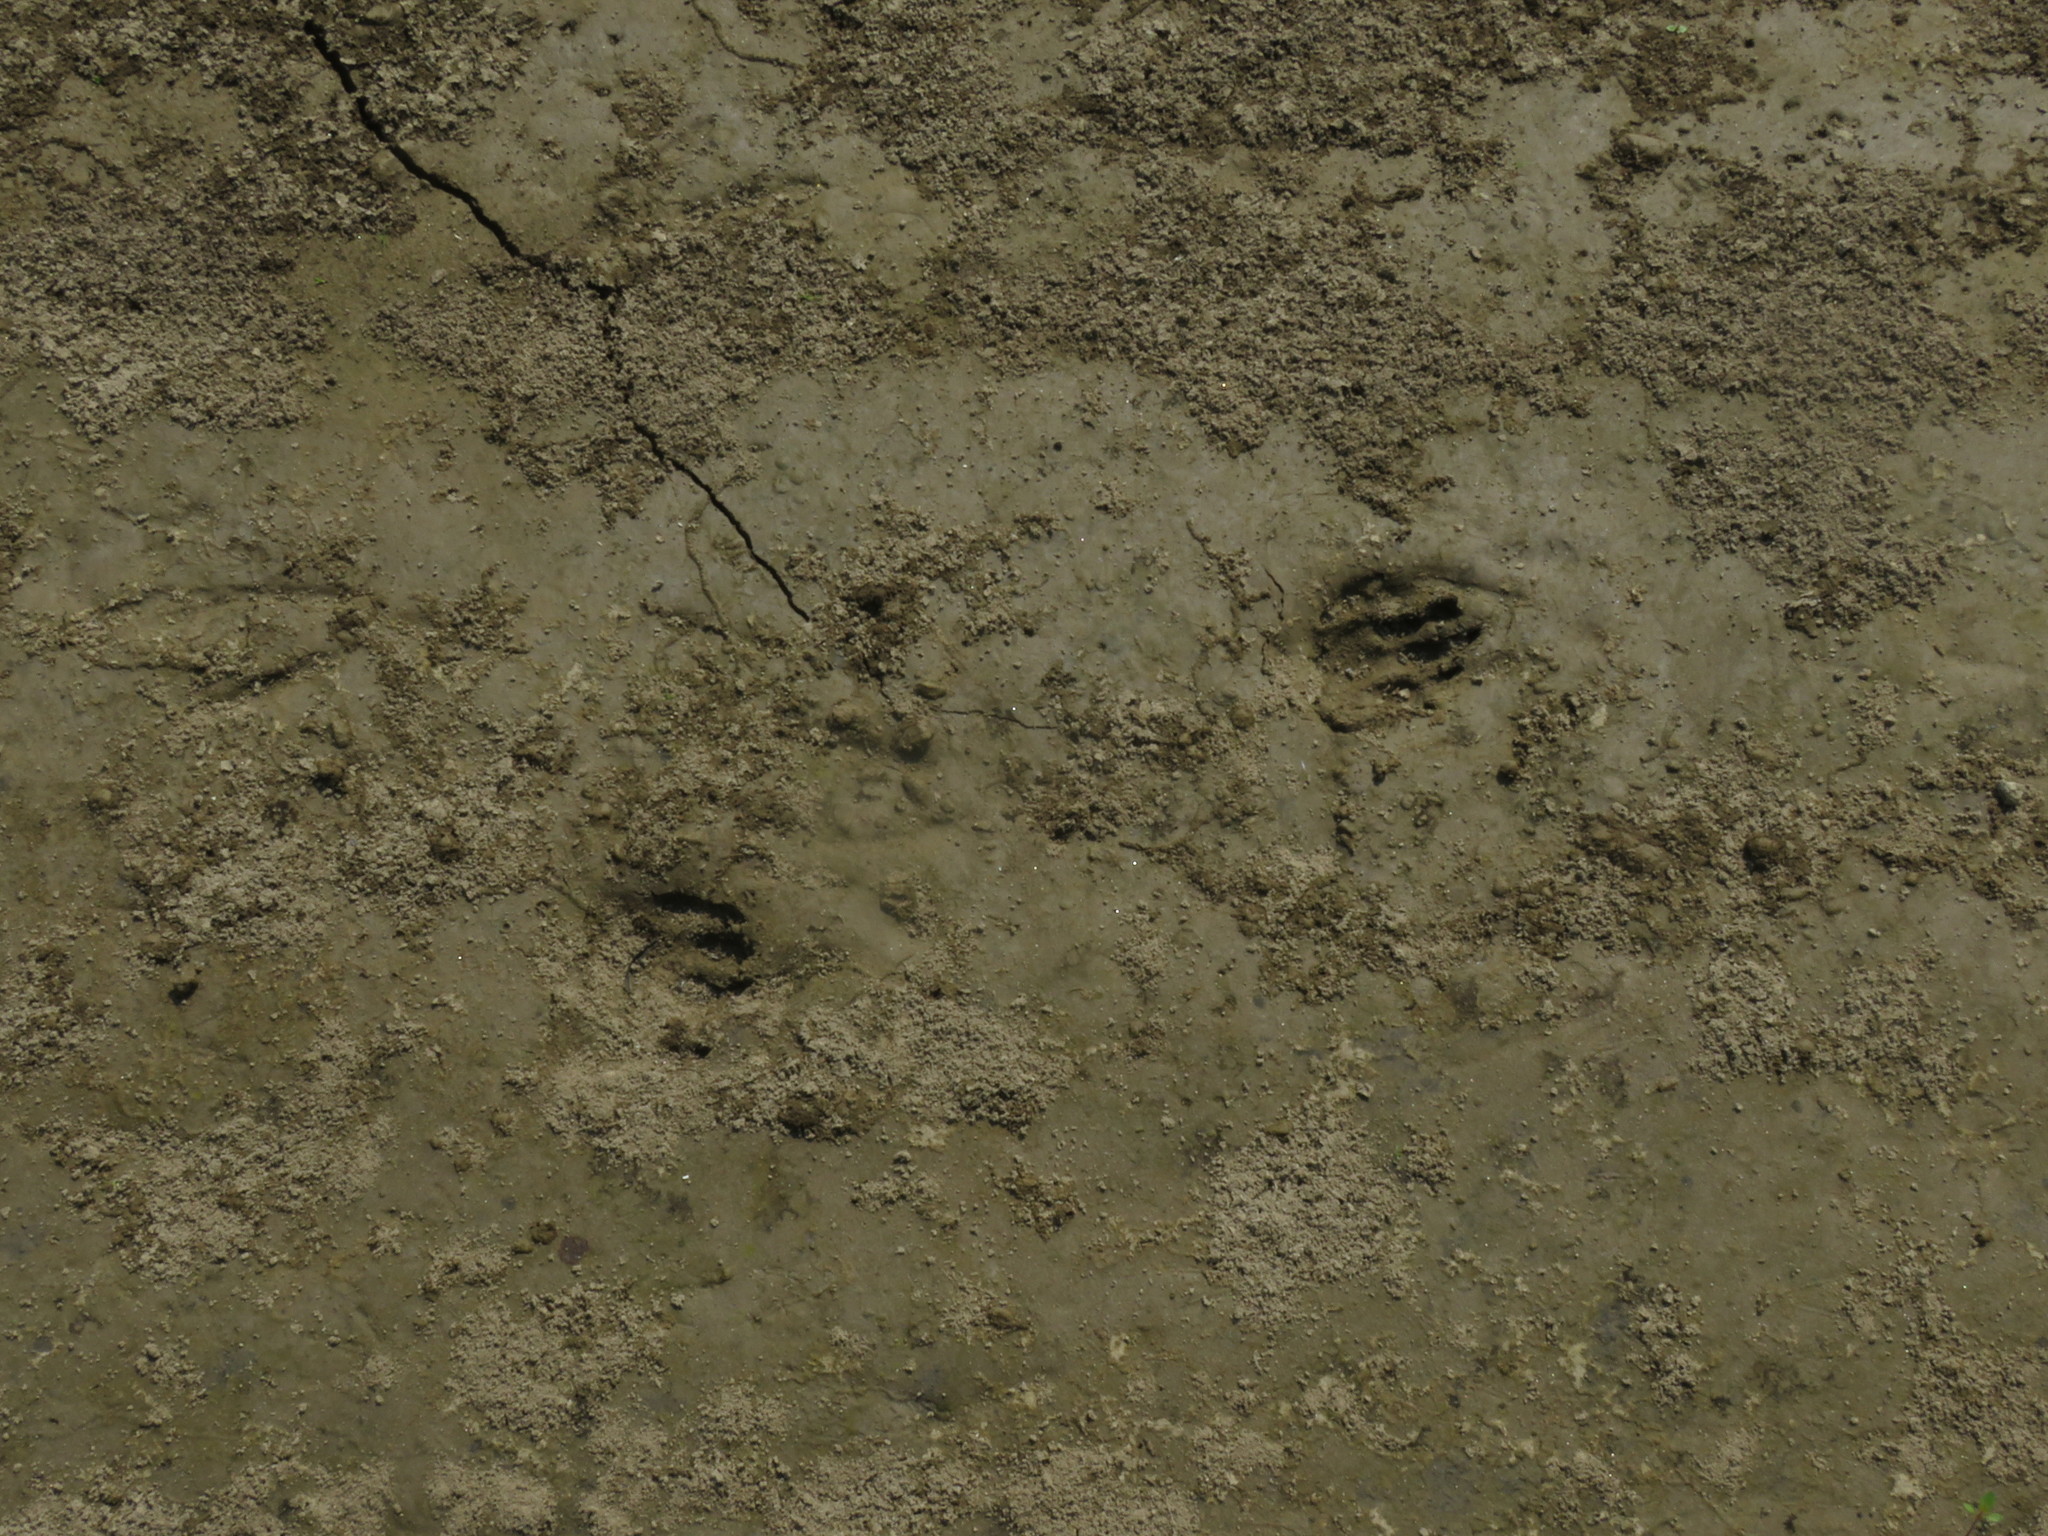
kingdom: Animalia
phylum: Chordata
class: Mammalia
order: Rodentia
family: Cuniculidae
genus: Cuniculus
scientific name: Cuniculus paca
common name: Lowland paca
